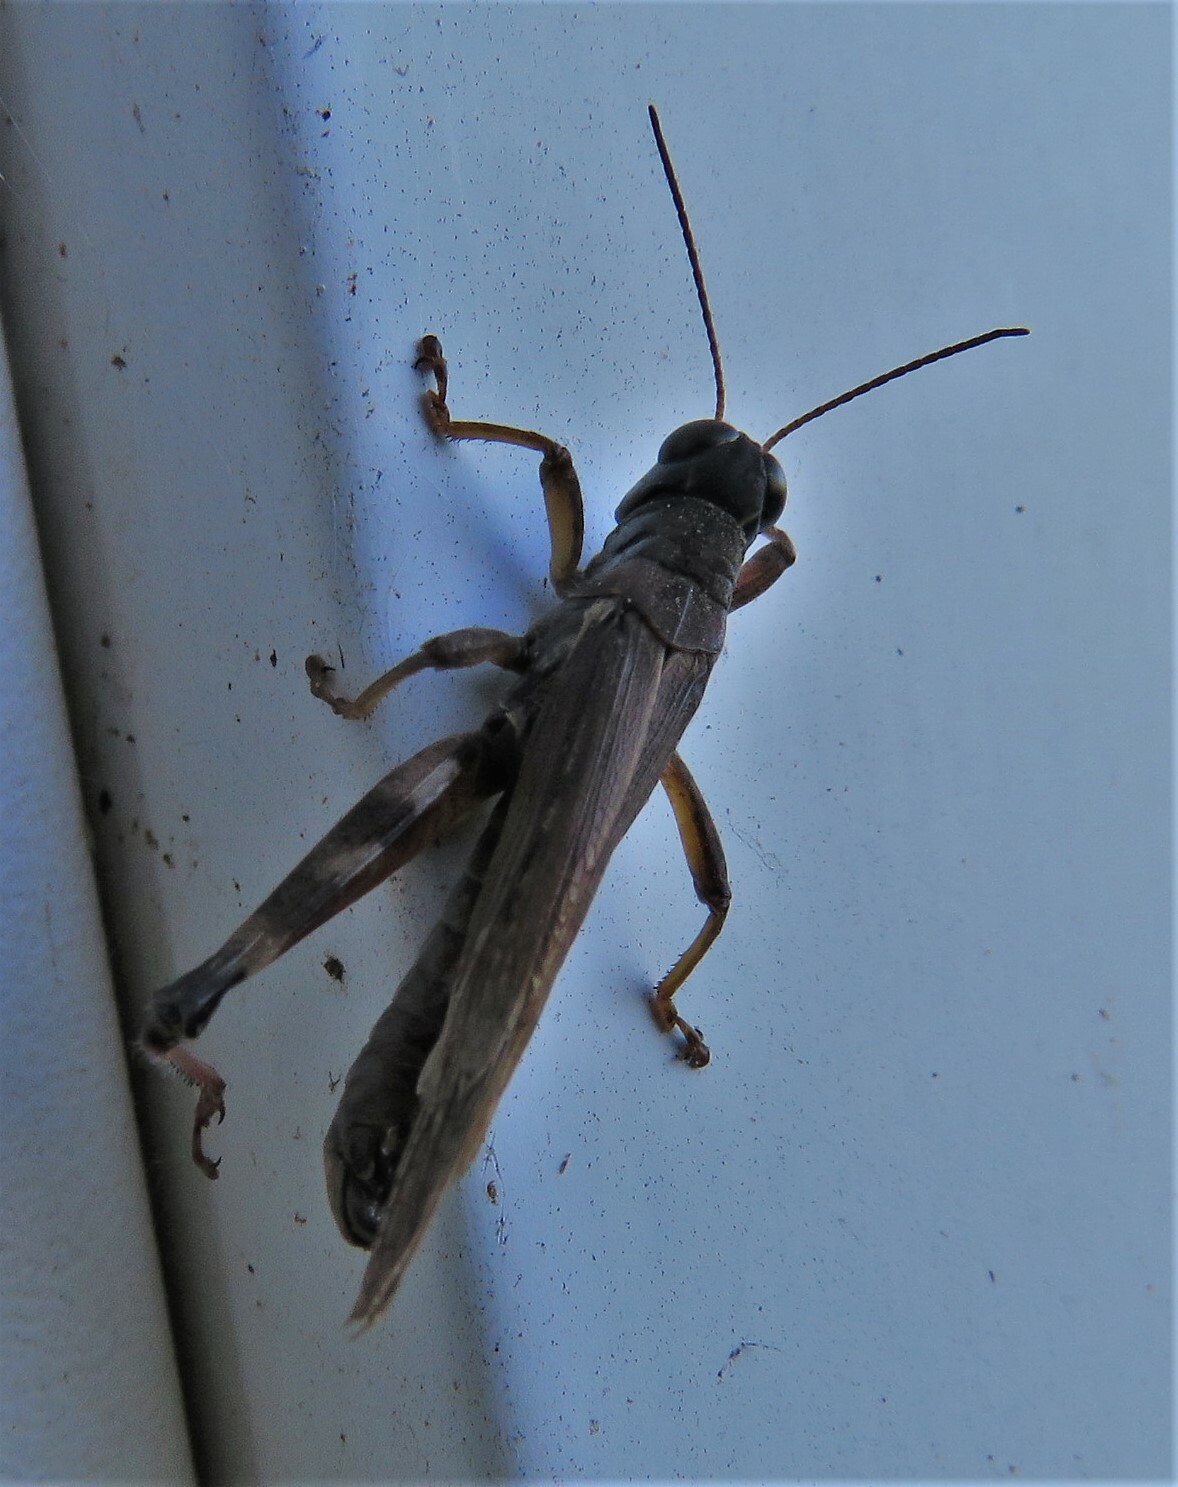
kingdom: Animalia
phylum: Arthropoda
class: Insecta
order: Orthoptera
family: Acrididae
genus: Melanoplus
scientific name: Melanoplus sanguinipes
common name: Migratory grasshopper
